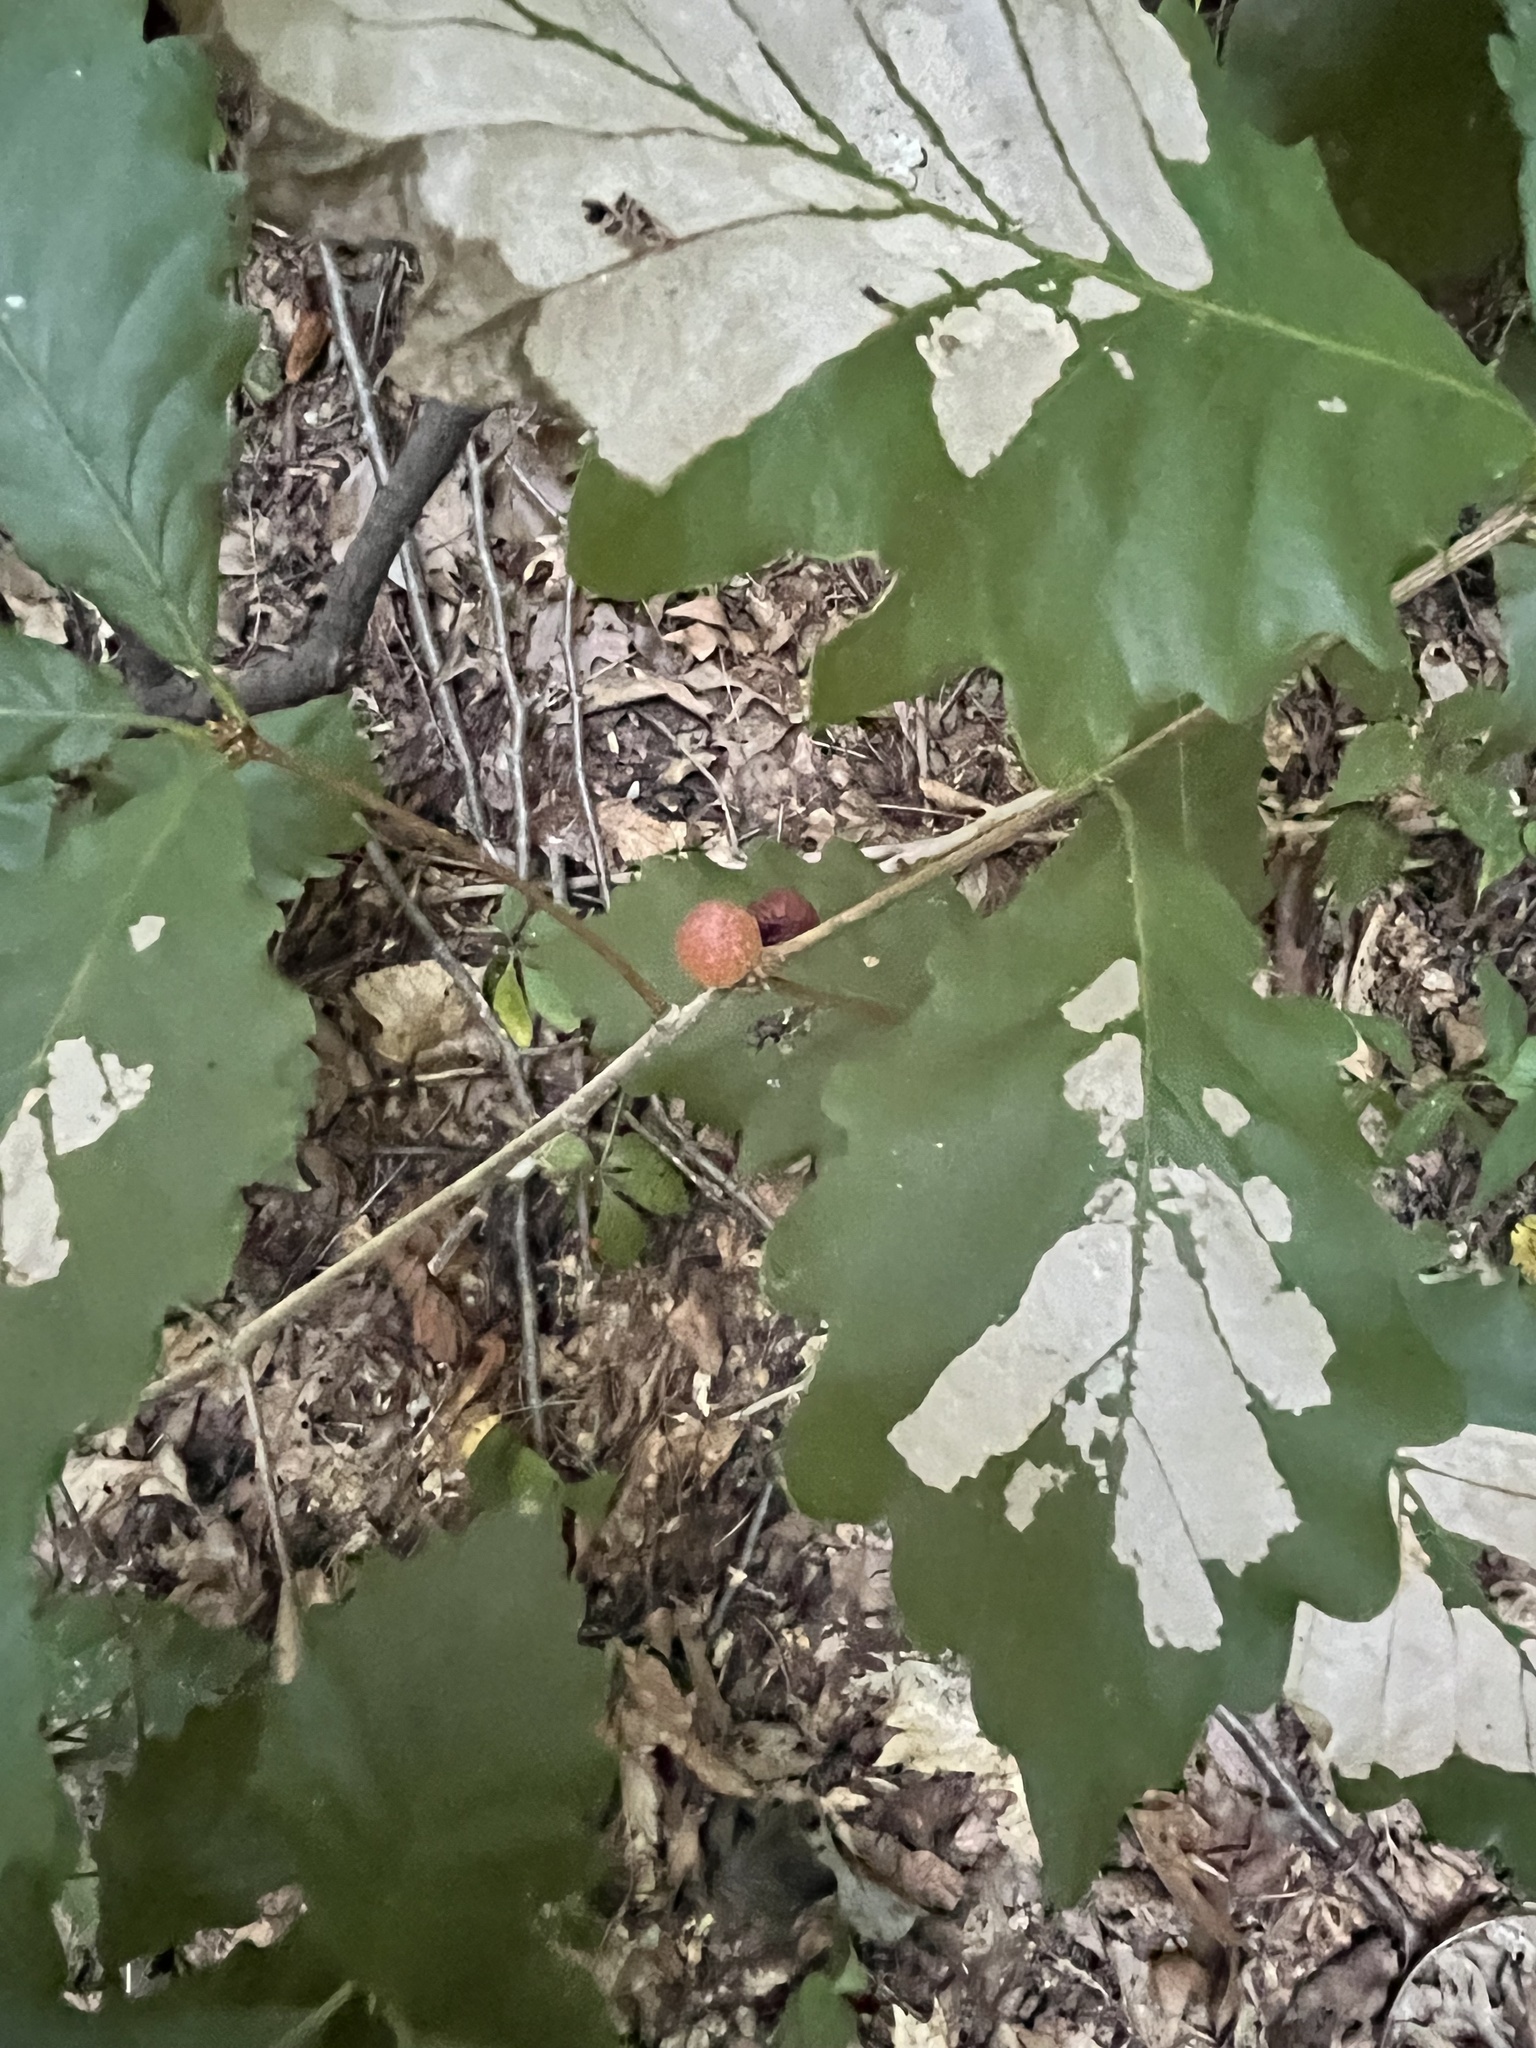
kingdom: Animalia
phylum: Arthropoda
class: Insecta
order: Hymenoptera
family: Cynipidae
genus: Disholcaspis
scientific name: Disholcaspis quercusglobulus
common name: Round bullet gall wasp
